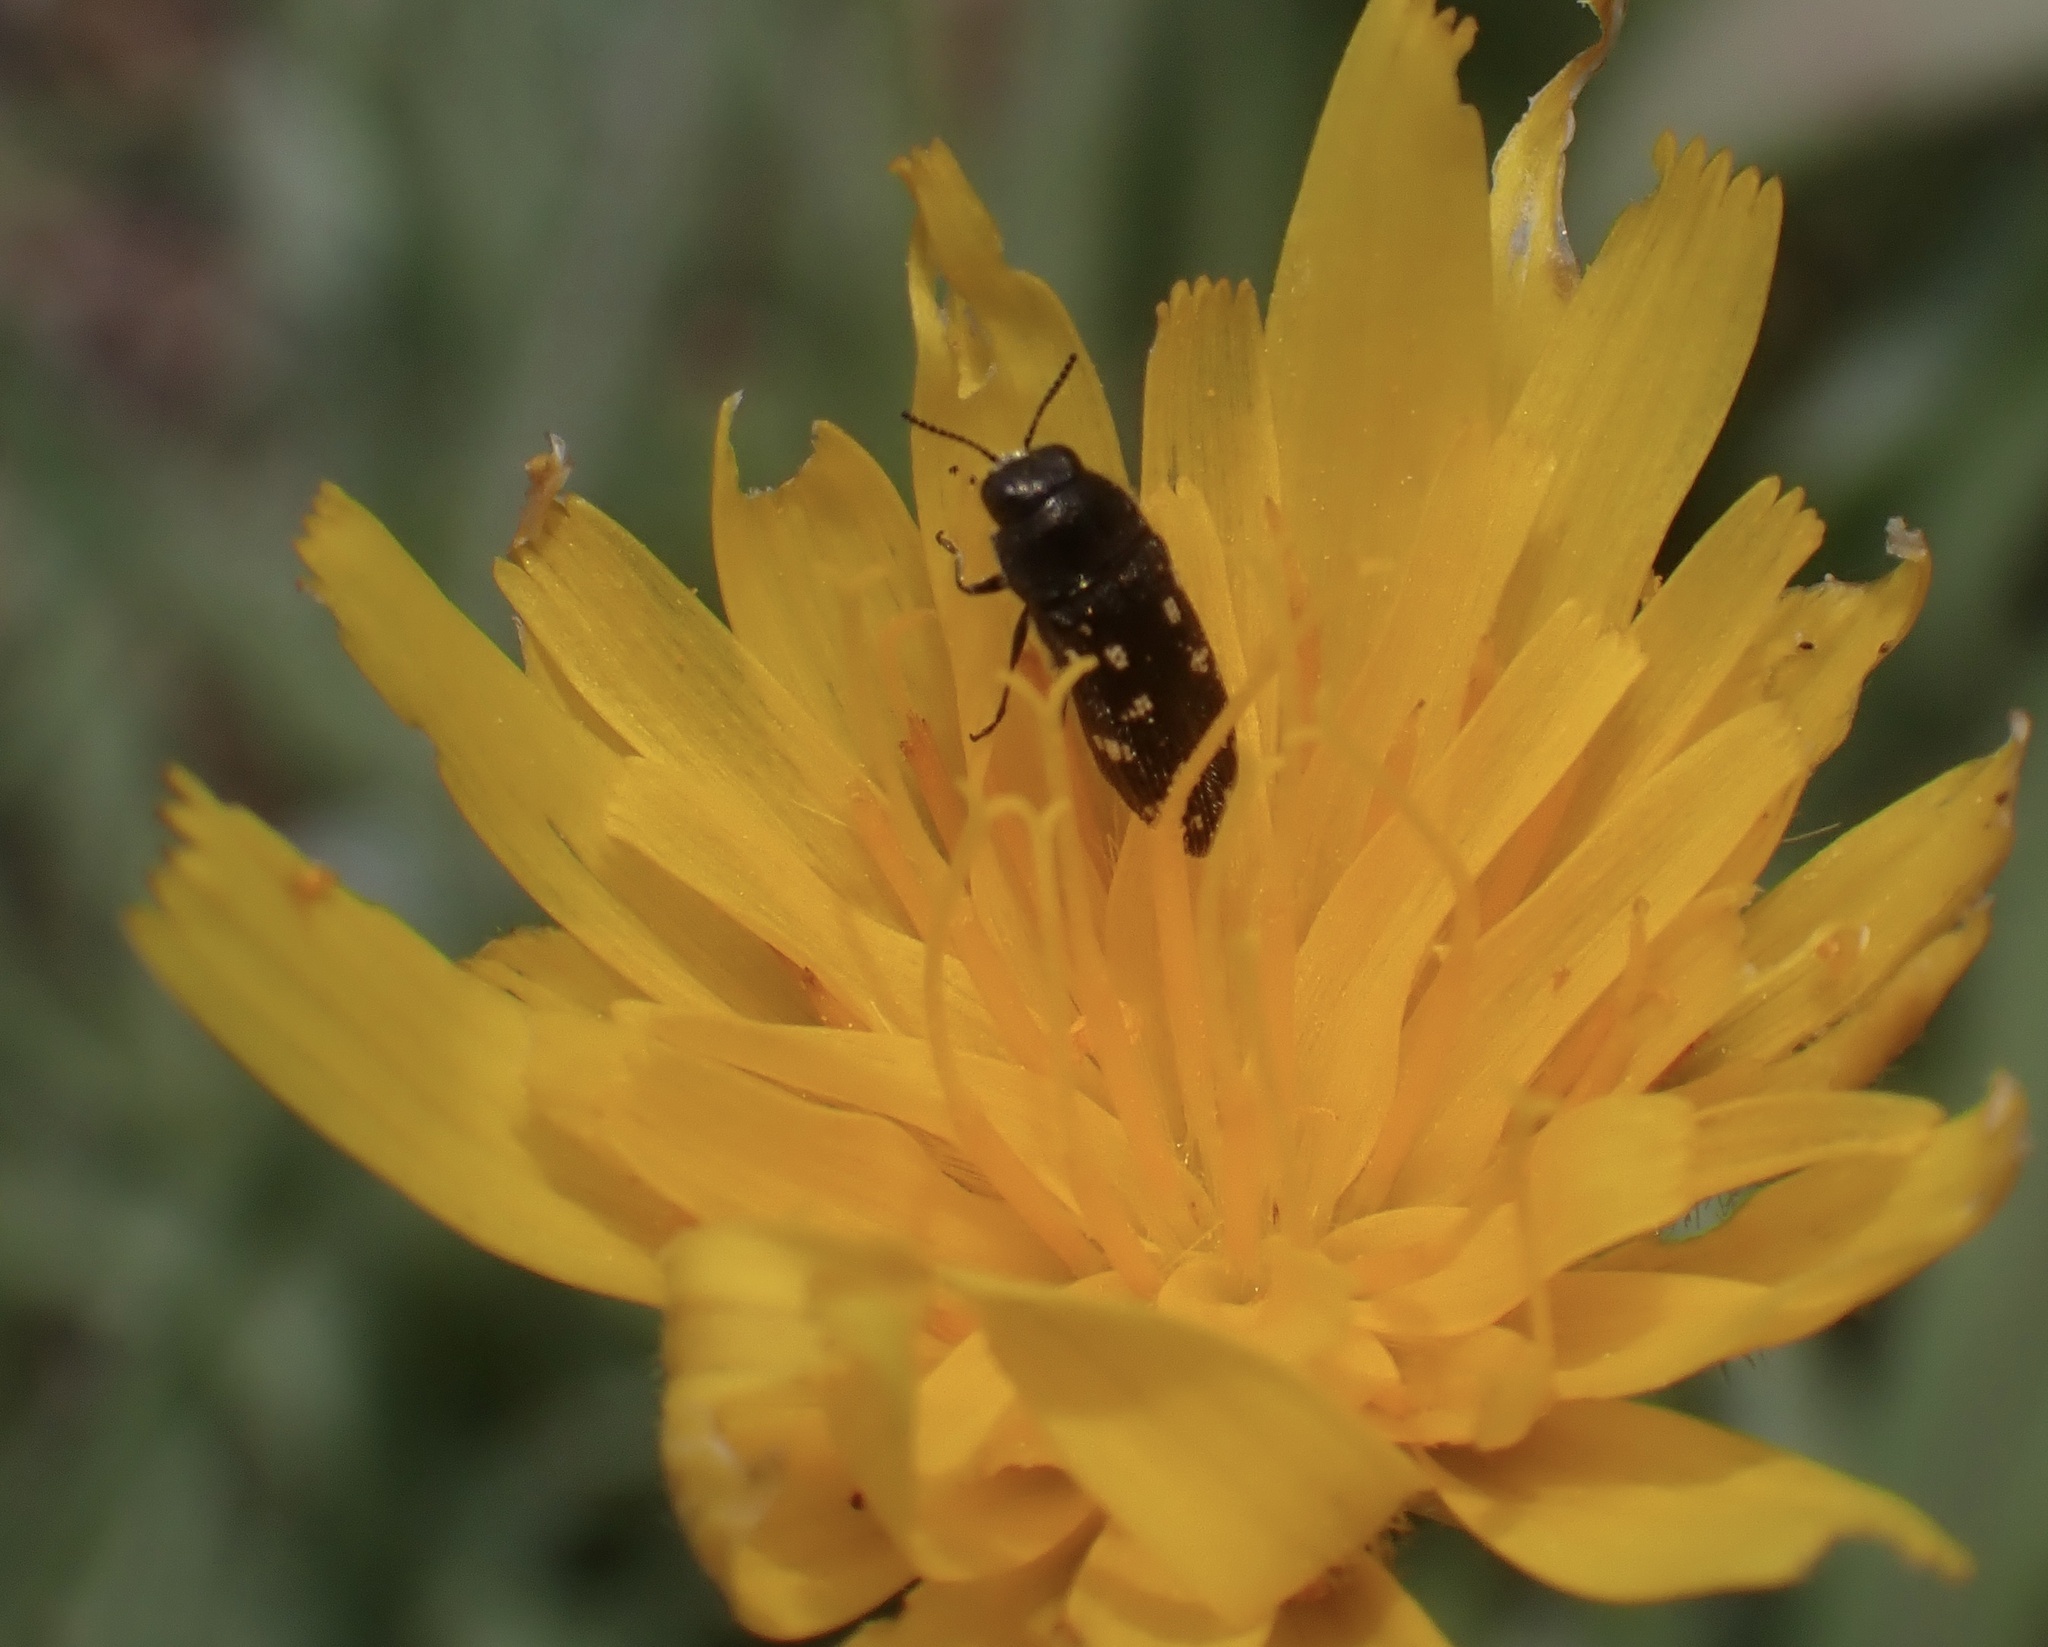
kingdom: Animalia
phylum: Arthropoda
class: Insecta
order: Coleoptera
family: Buprestidae
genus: Acmaeodera
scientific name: Acmaeodera tubulus
